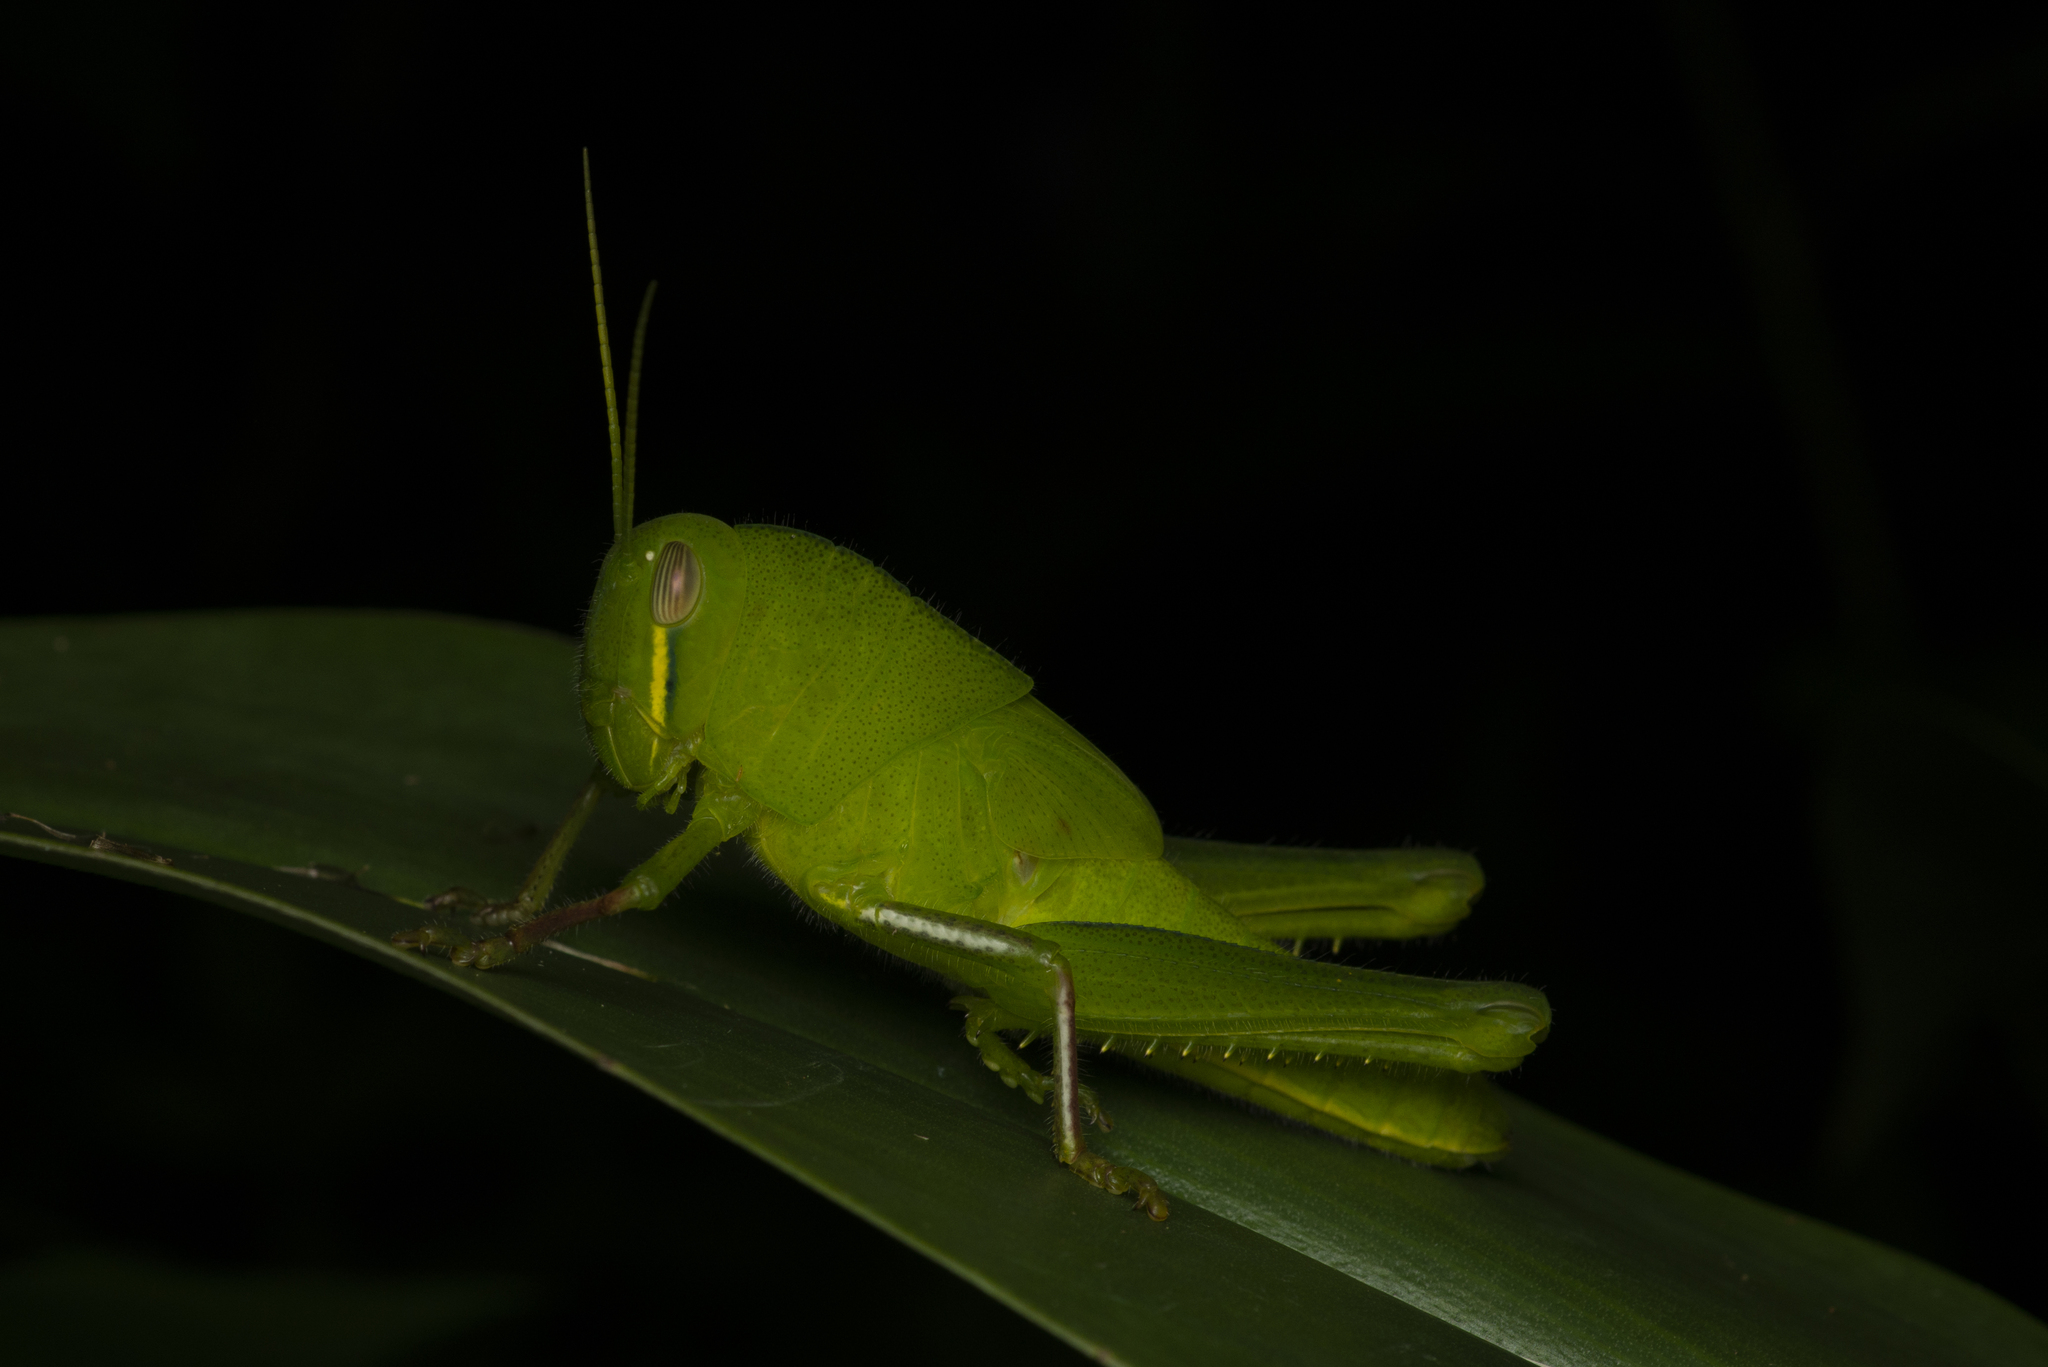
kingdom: Animalia
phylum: Arthropoda
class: Insecta
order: Orthoptera
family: Acrididae
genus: Chondracris
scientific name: Chondracris rosea
